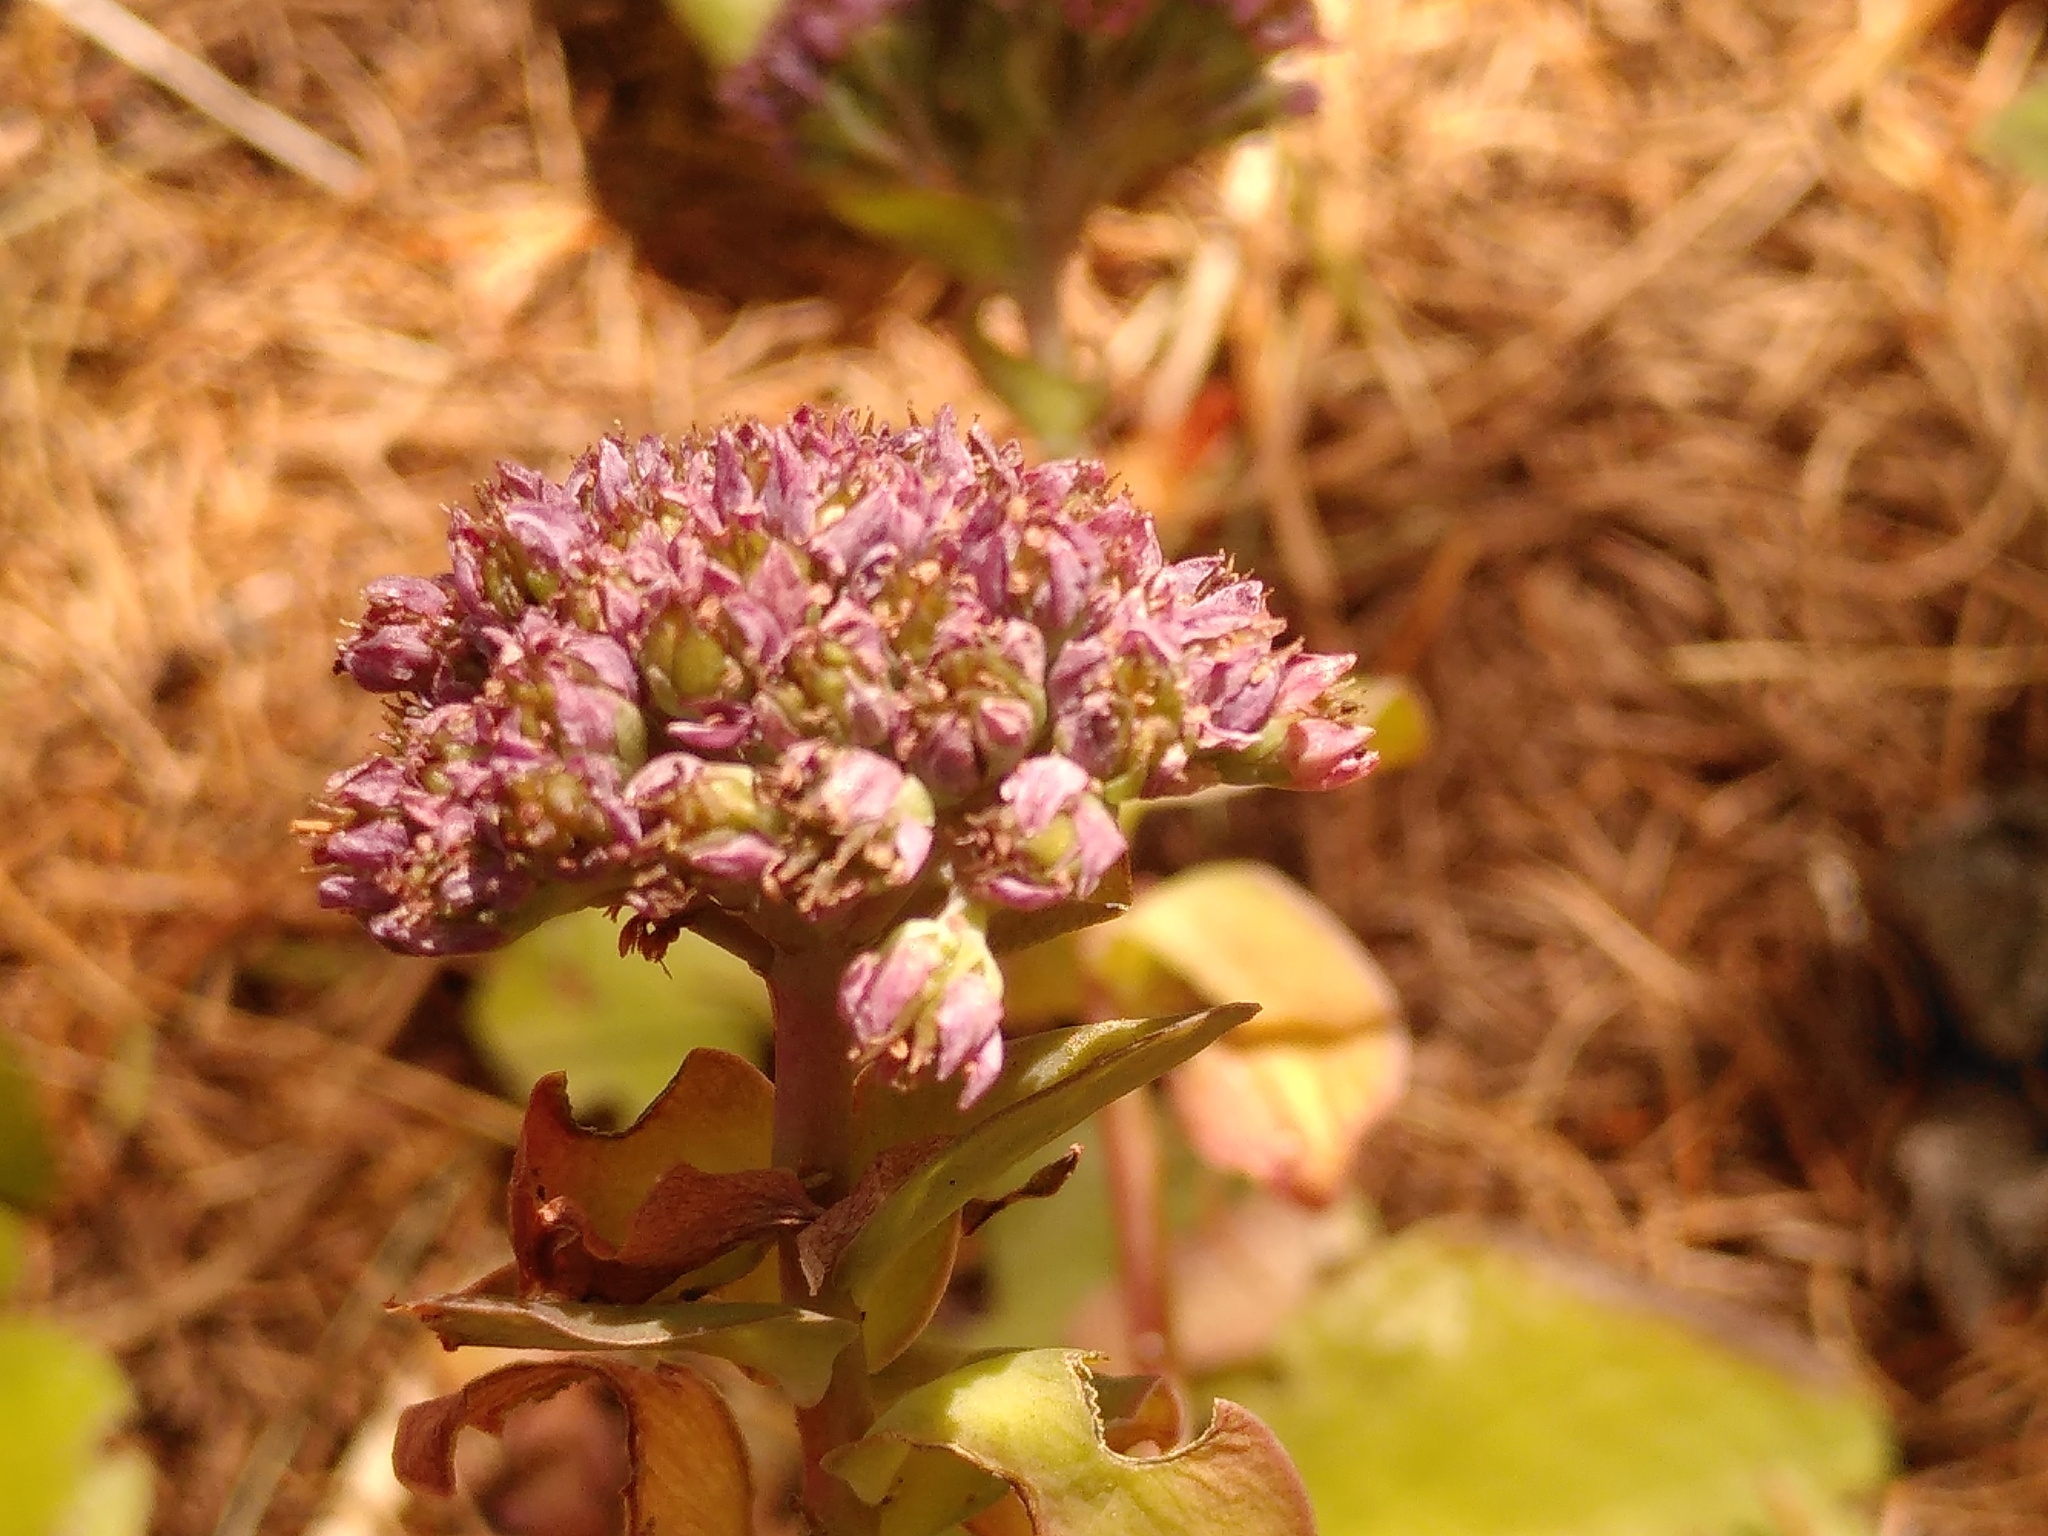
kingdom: Plantae
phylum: Tracheophyta
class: Magnoliopsida
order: Saxifragales
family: Crassulaceae
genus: Hylotelephium
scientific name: Hylotelephium anacampseros
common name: Love-restorer
